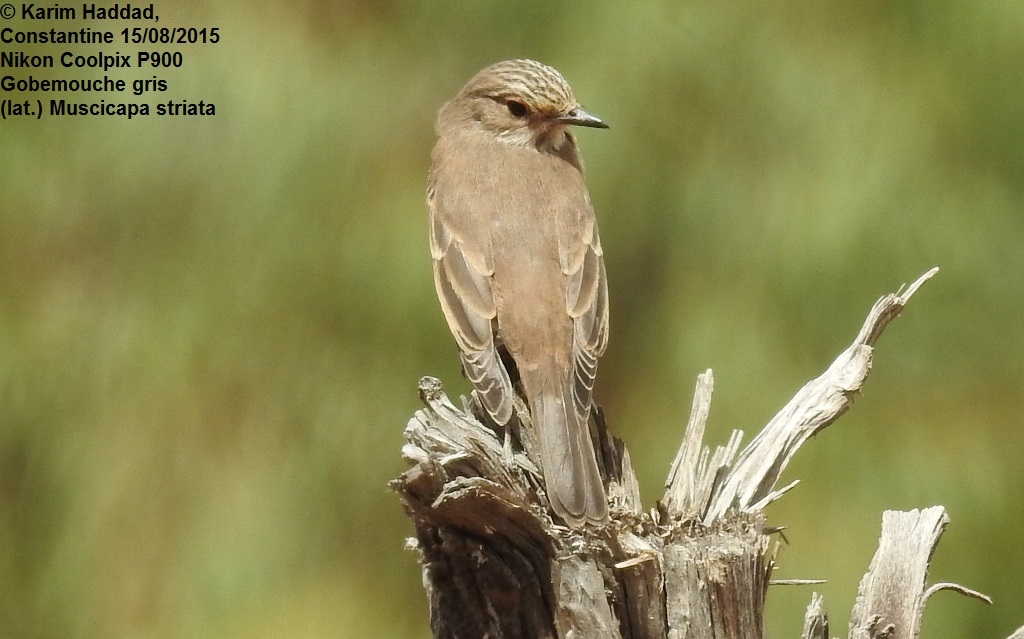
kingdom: Animalia
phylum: Chordata
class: Aves
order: Passeriformes
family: Muscicapidae
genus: Muscicapa
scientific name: Muscicapa striata
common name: Spotted flycatcher
